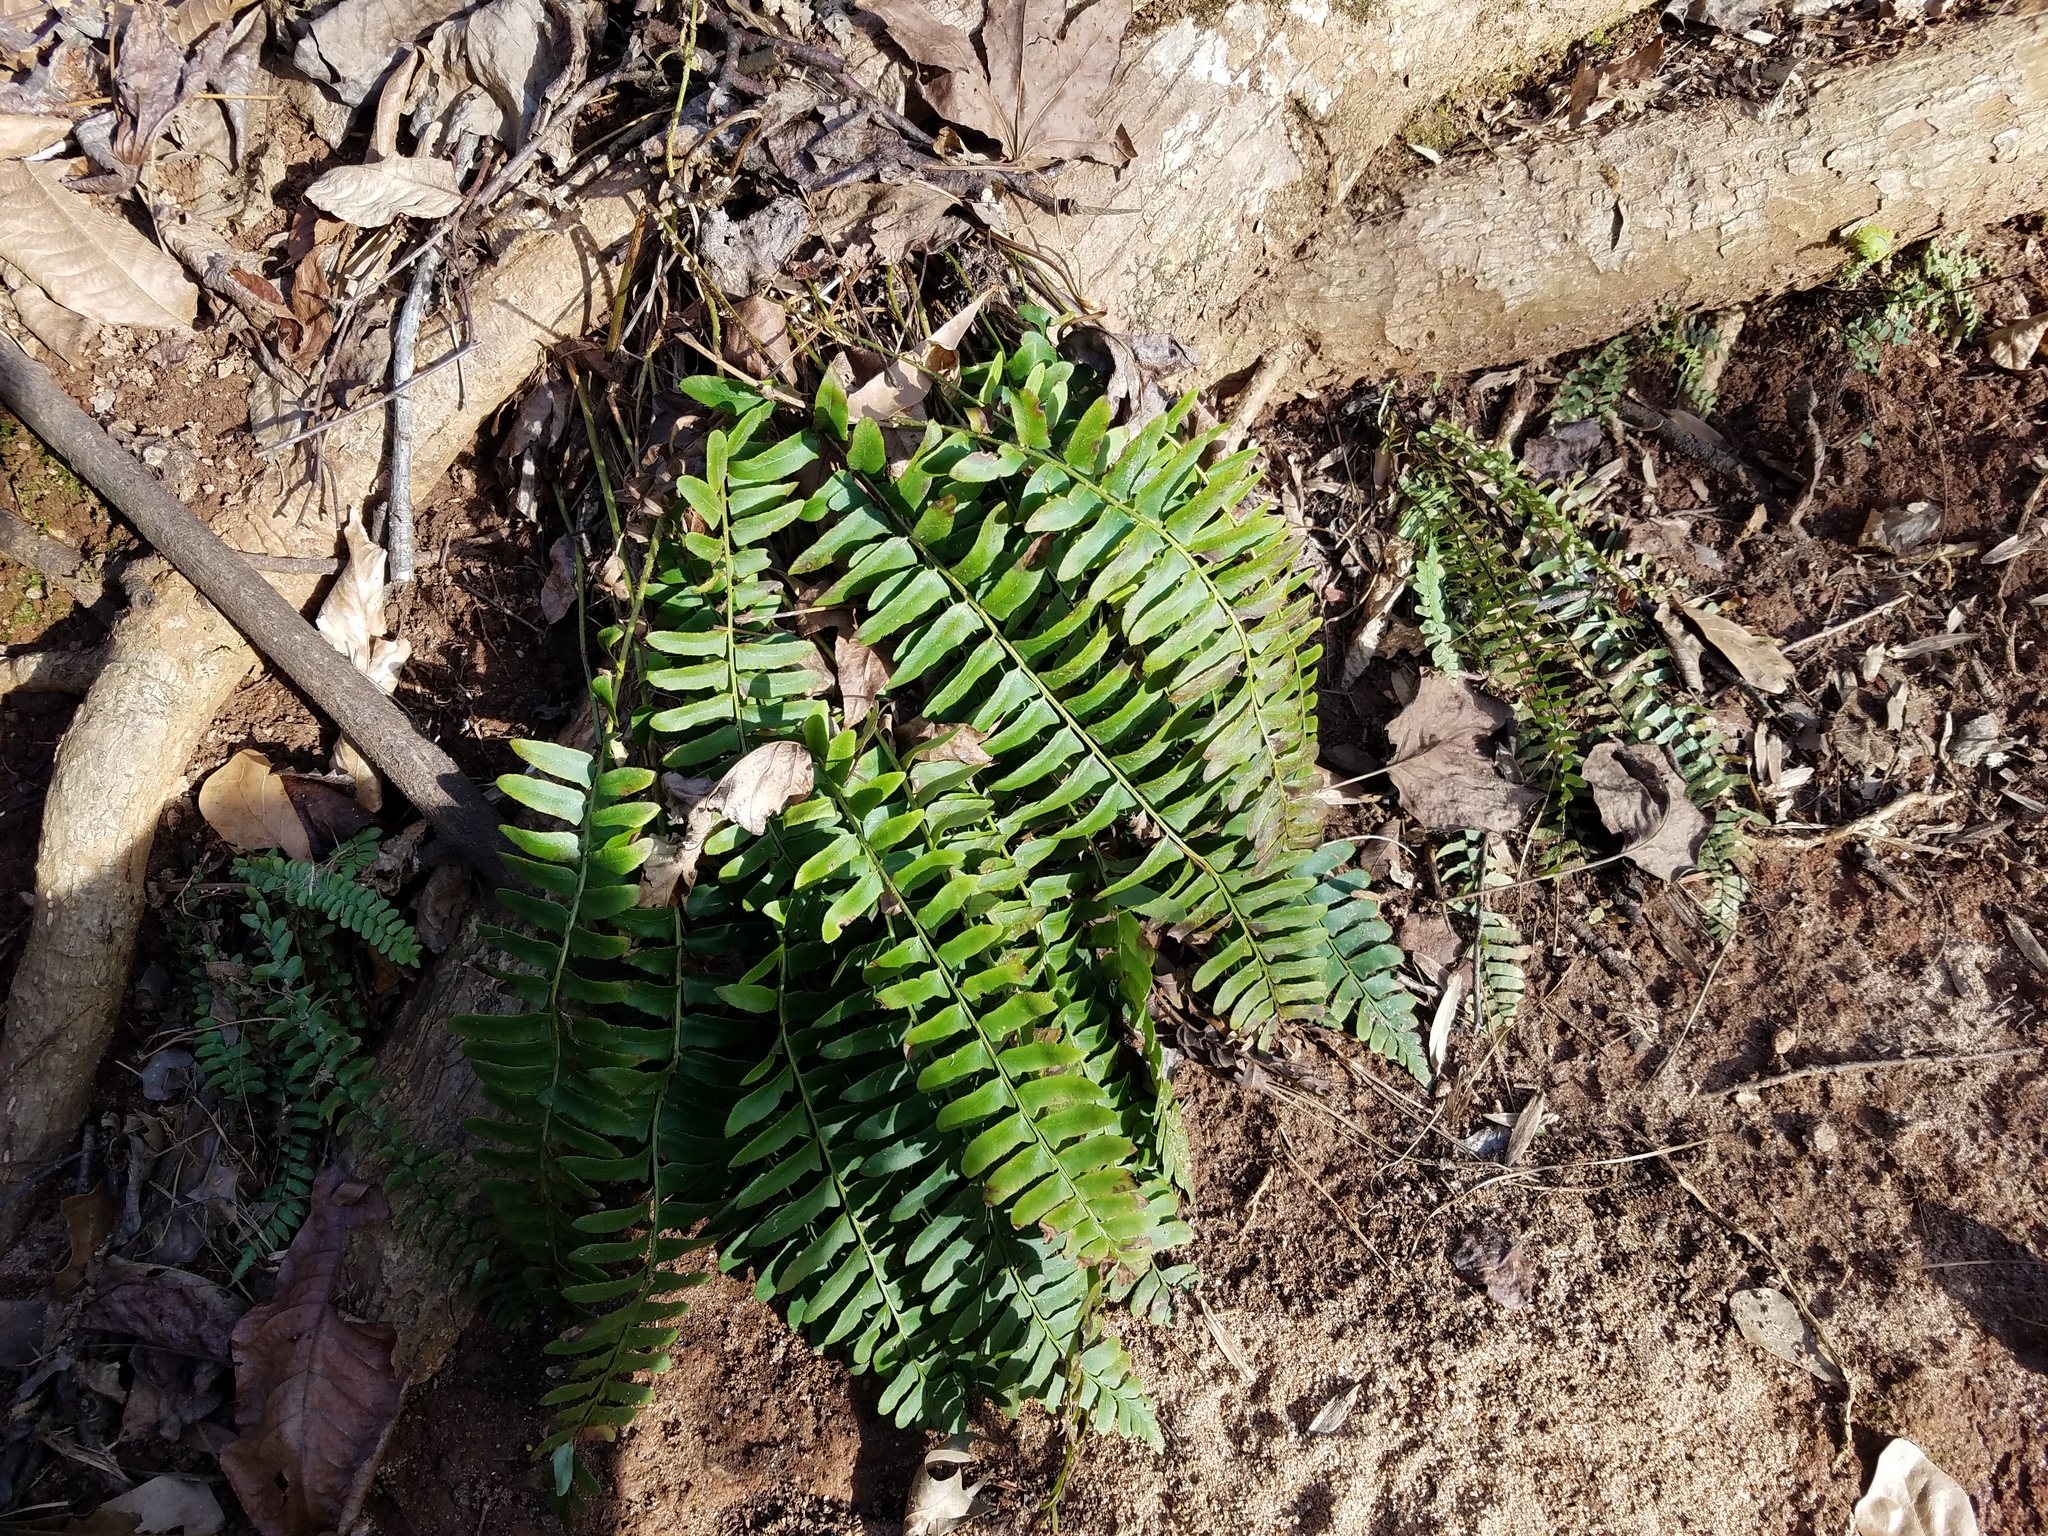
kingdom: Plantae
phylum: Tracheophyta
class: Polypodiopsida
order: Polypodiales
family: Dryopteridaceae
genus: Polystichum
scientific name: Polystichum acrostichoides
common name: Christmas fern
